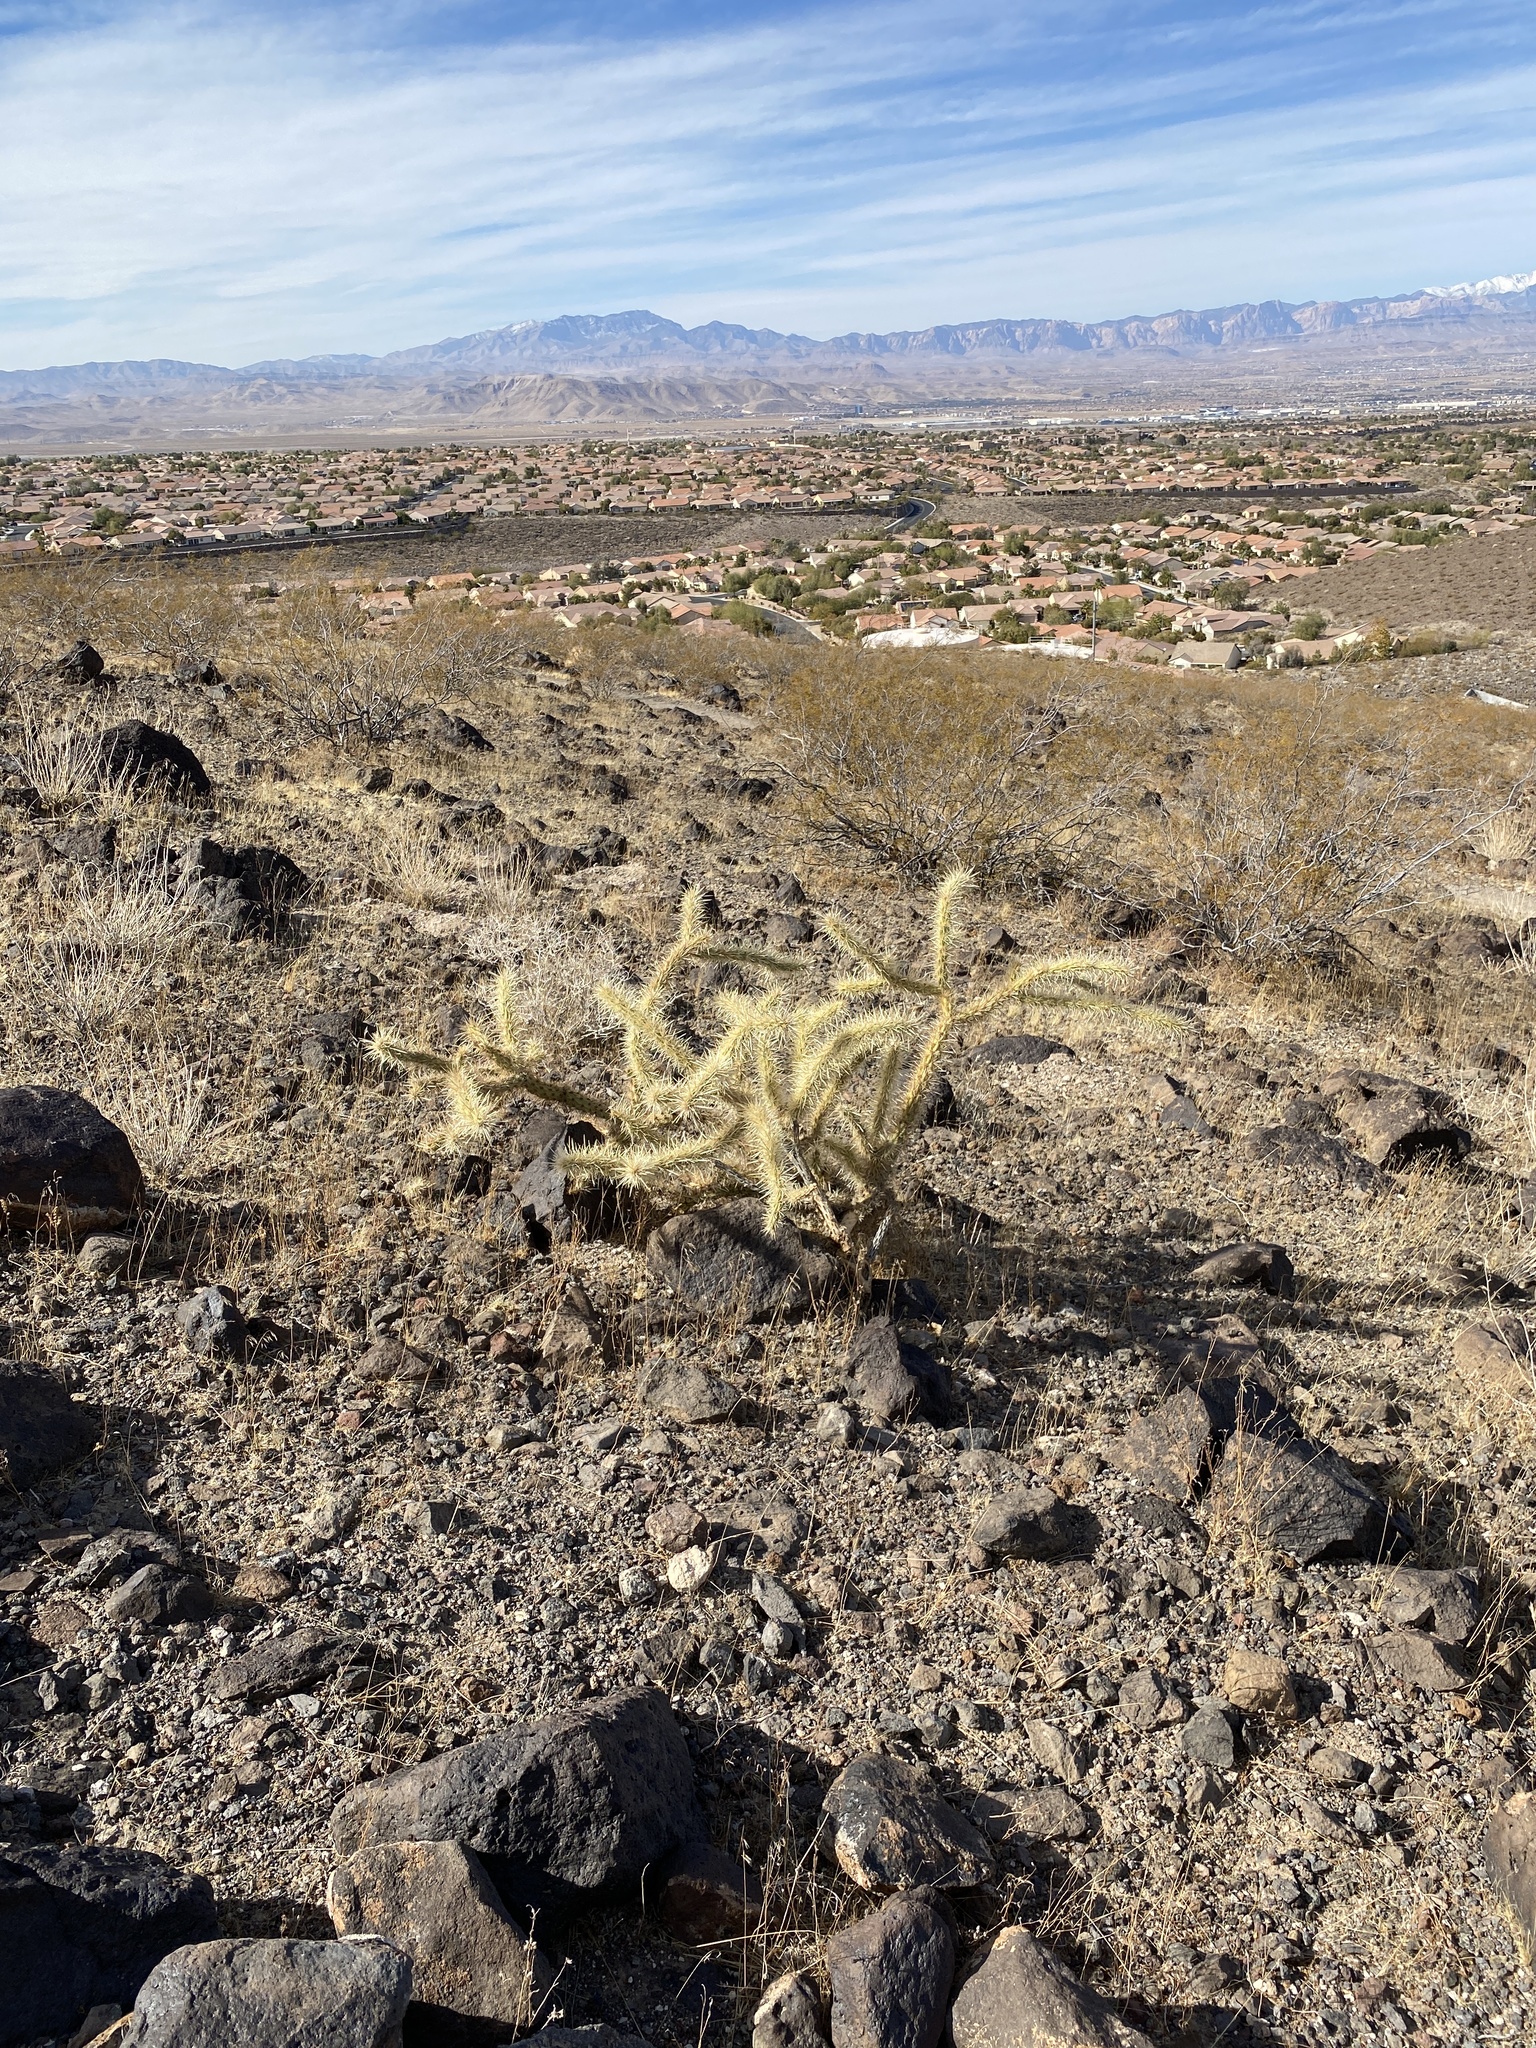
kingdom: Plantae
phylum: Tracheophyta
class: Magnoliopsida
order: Caryophyllales
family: Cactaceae
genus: Cylindropuntia
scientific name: Cylindropuntia acanthocarpa
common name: Buckhorn cholla
